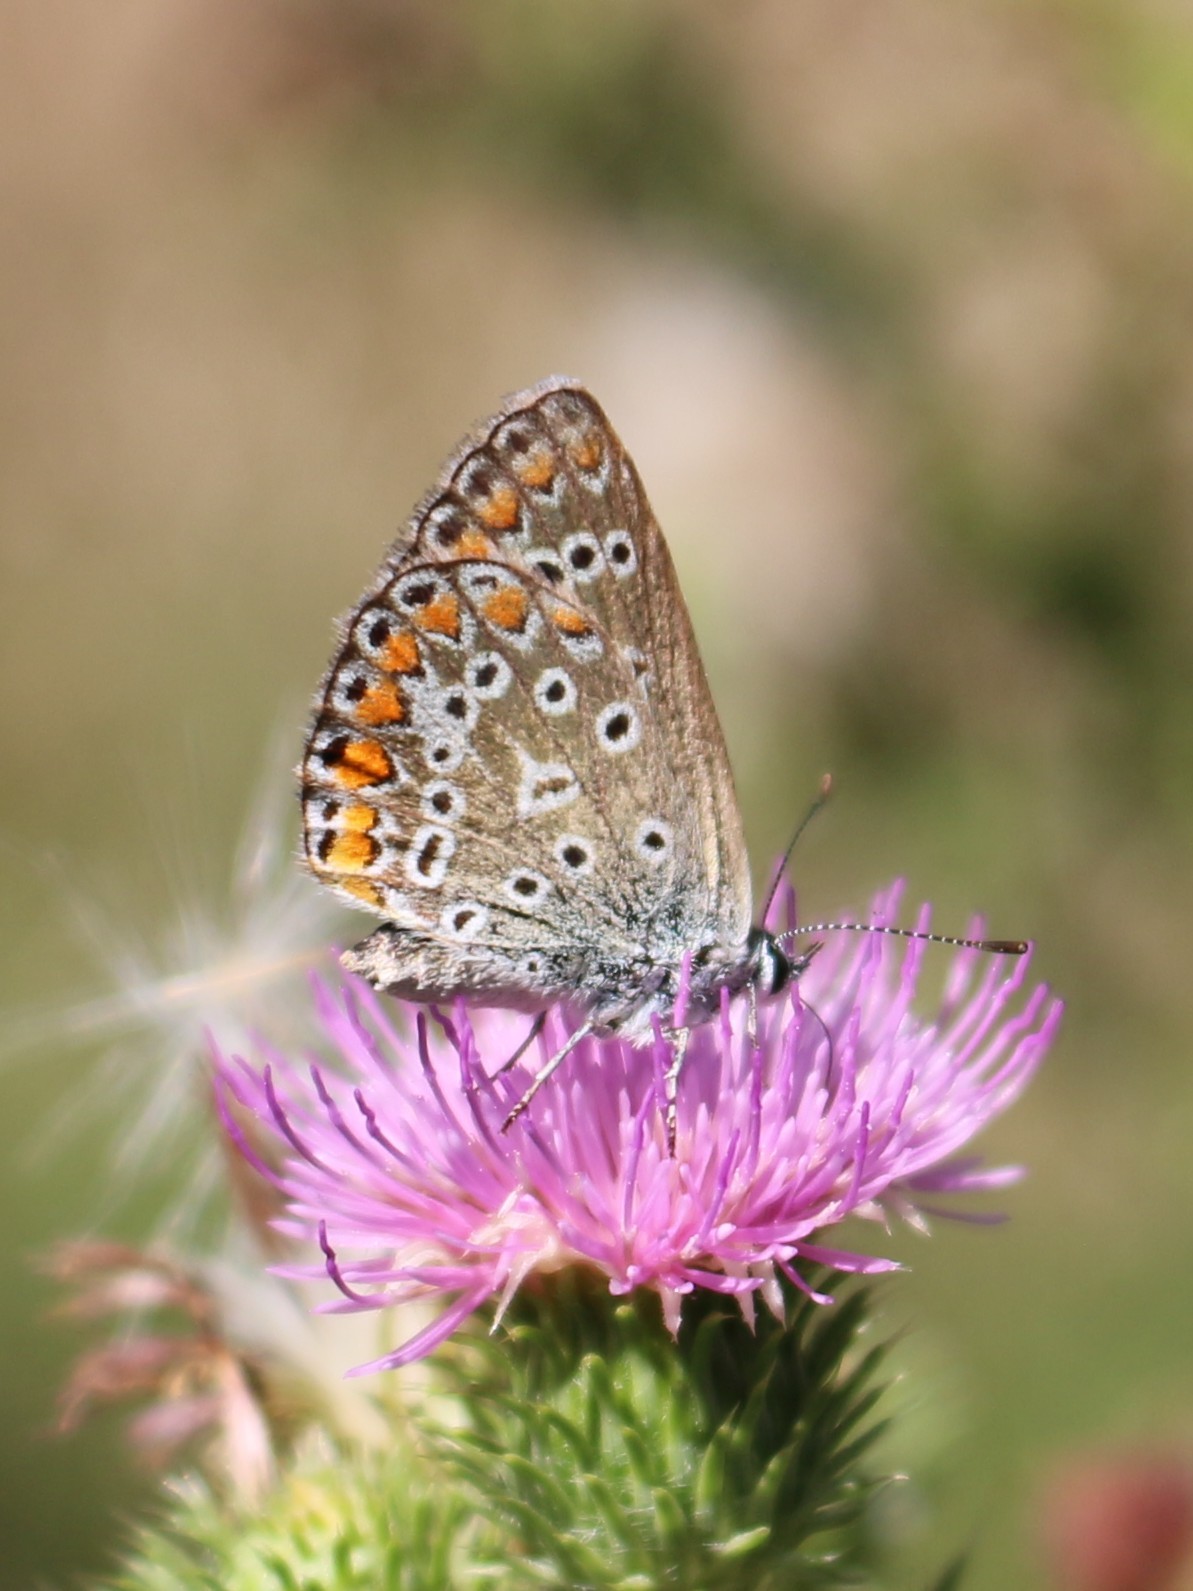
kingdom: Animalia
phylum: Arthropoda
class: Insecta
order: Lepidoptera
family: Lycaenidae
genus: Polyommatus
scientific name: Polyommatus icarus
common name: Common blue
